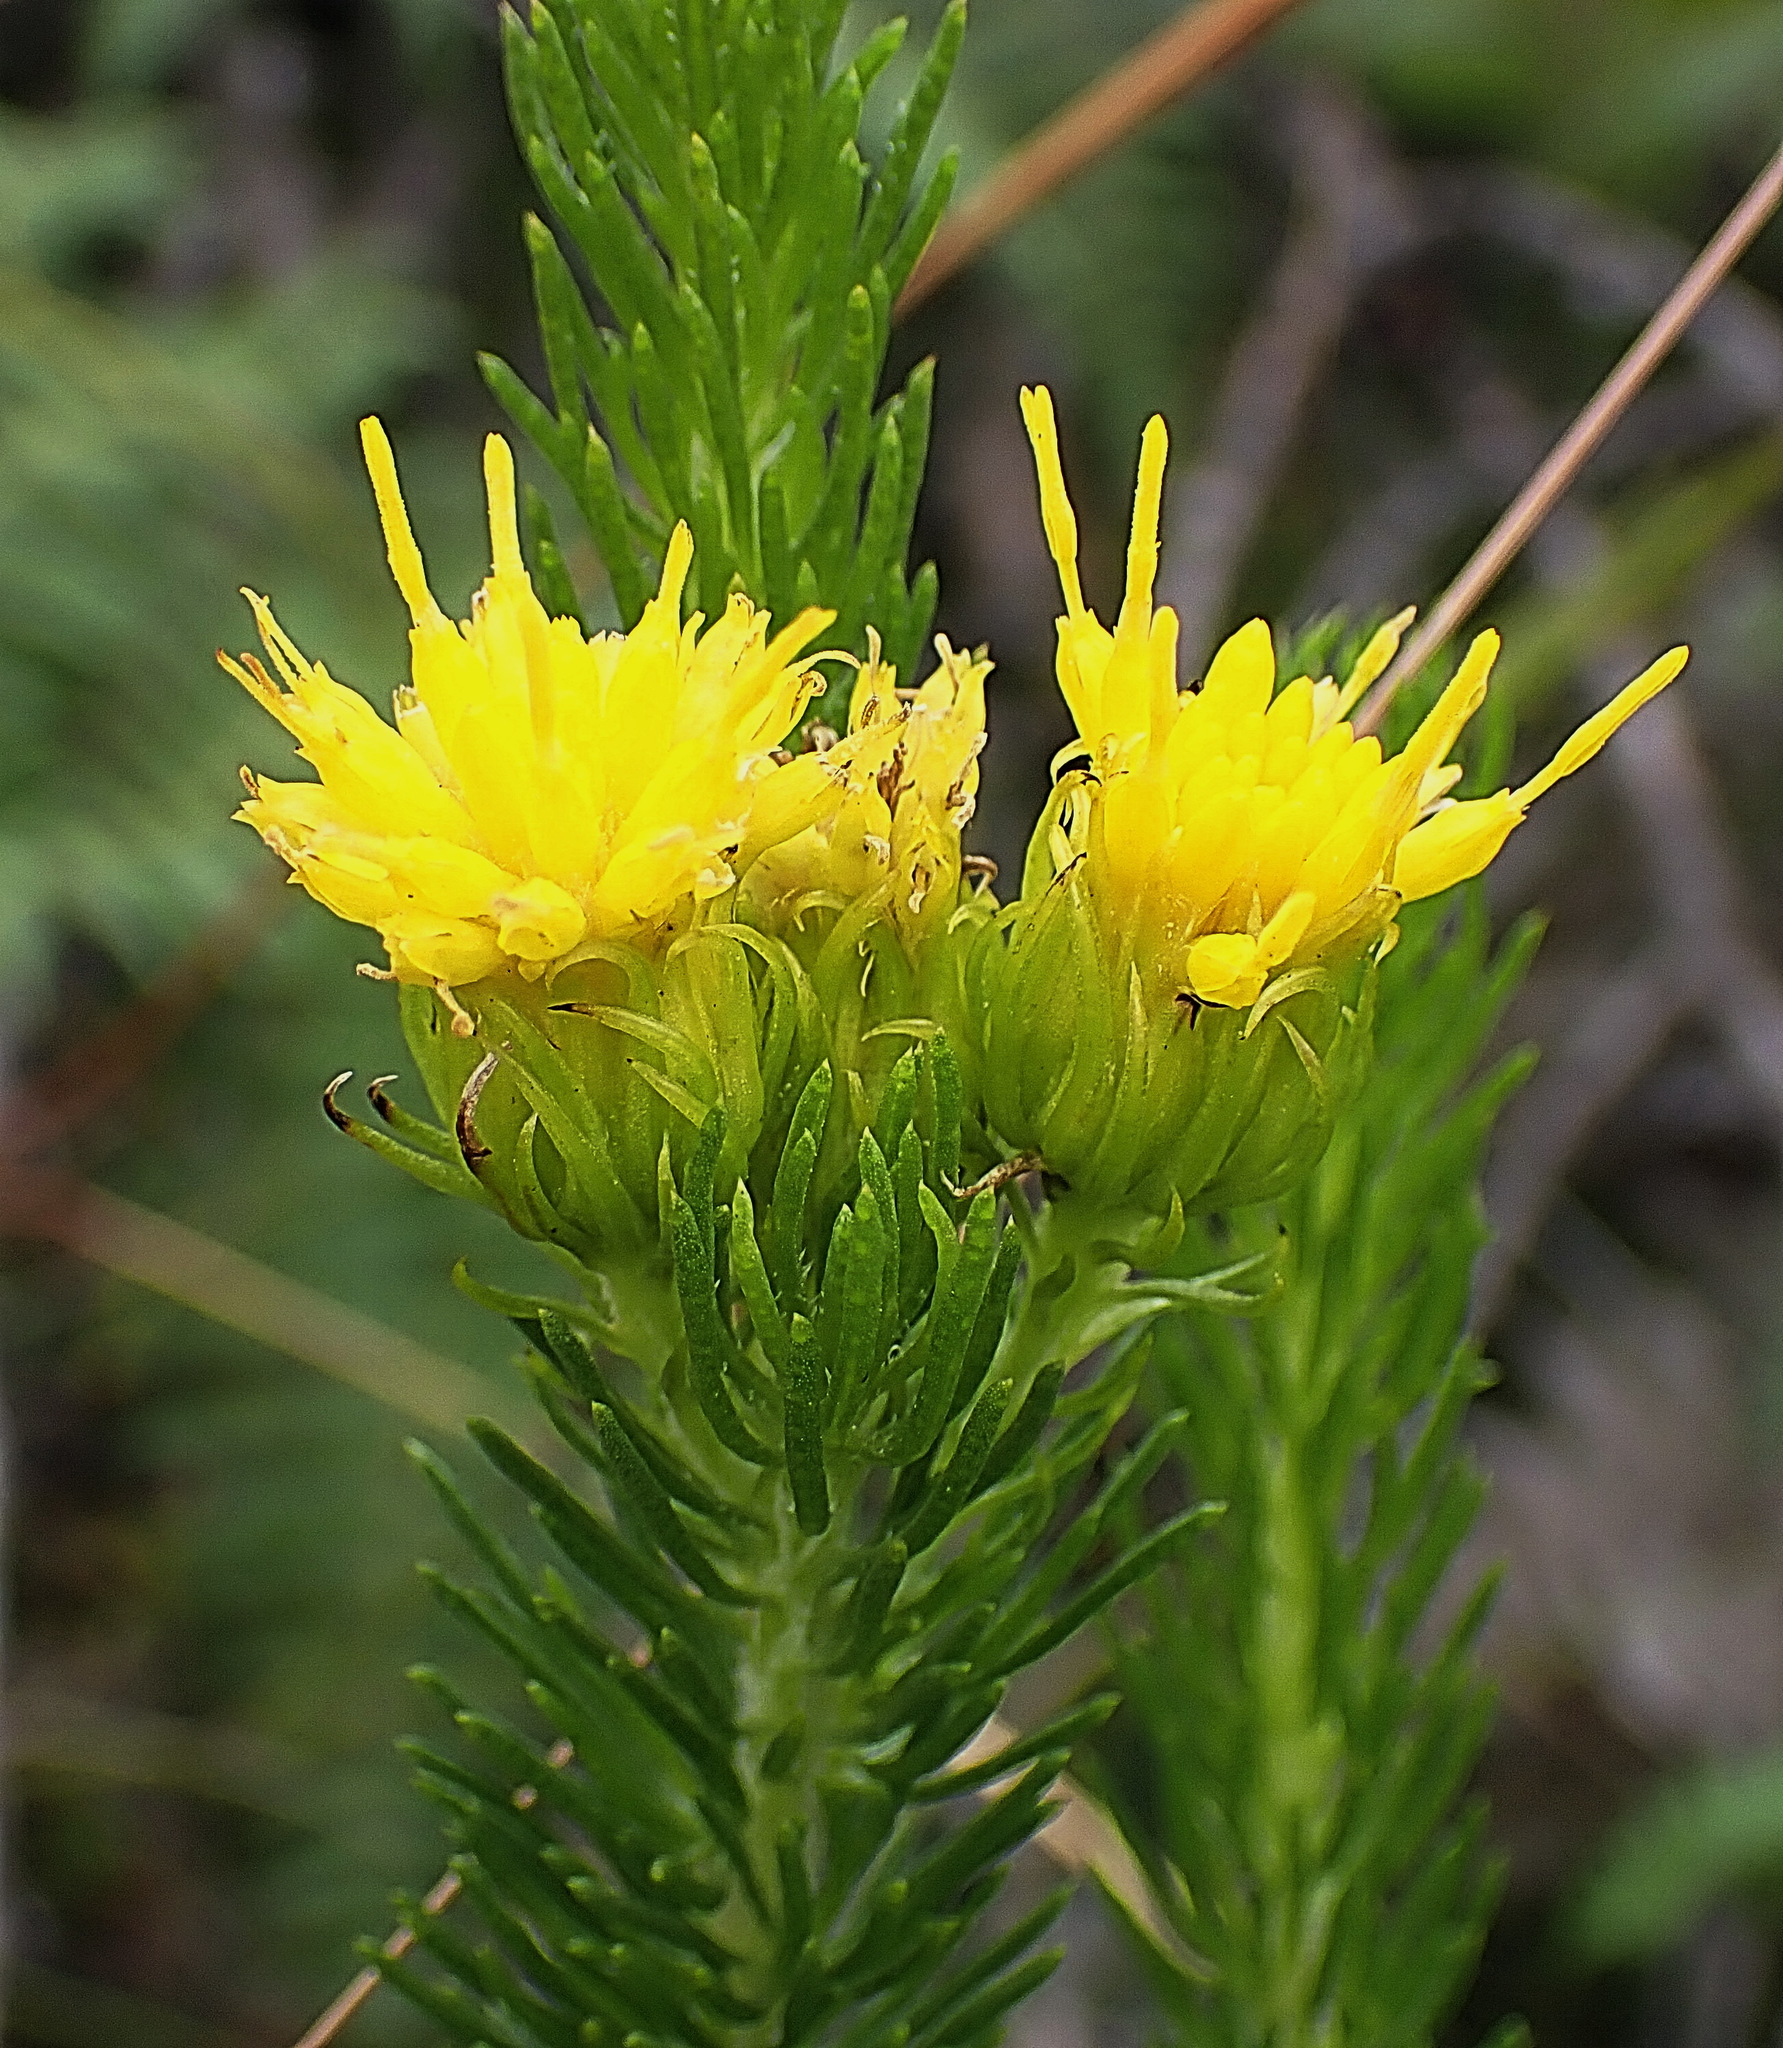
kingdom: Plantae
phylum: Tracheophyta
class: Magnoliopsida
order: Asterales
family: Asteraceae
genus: Pteronia
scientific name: Pteronia camphorata
